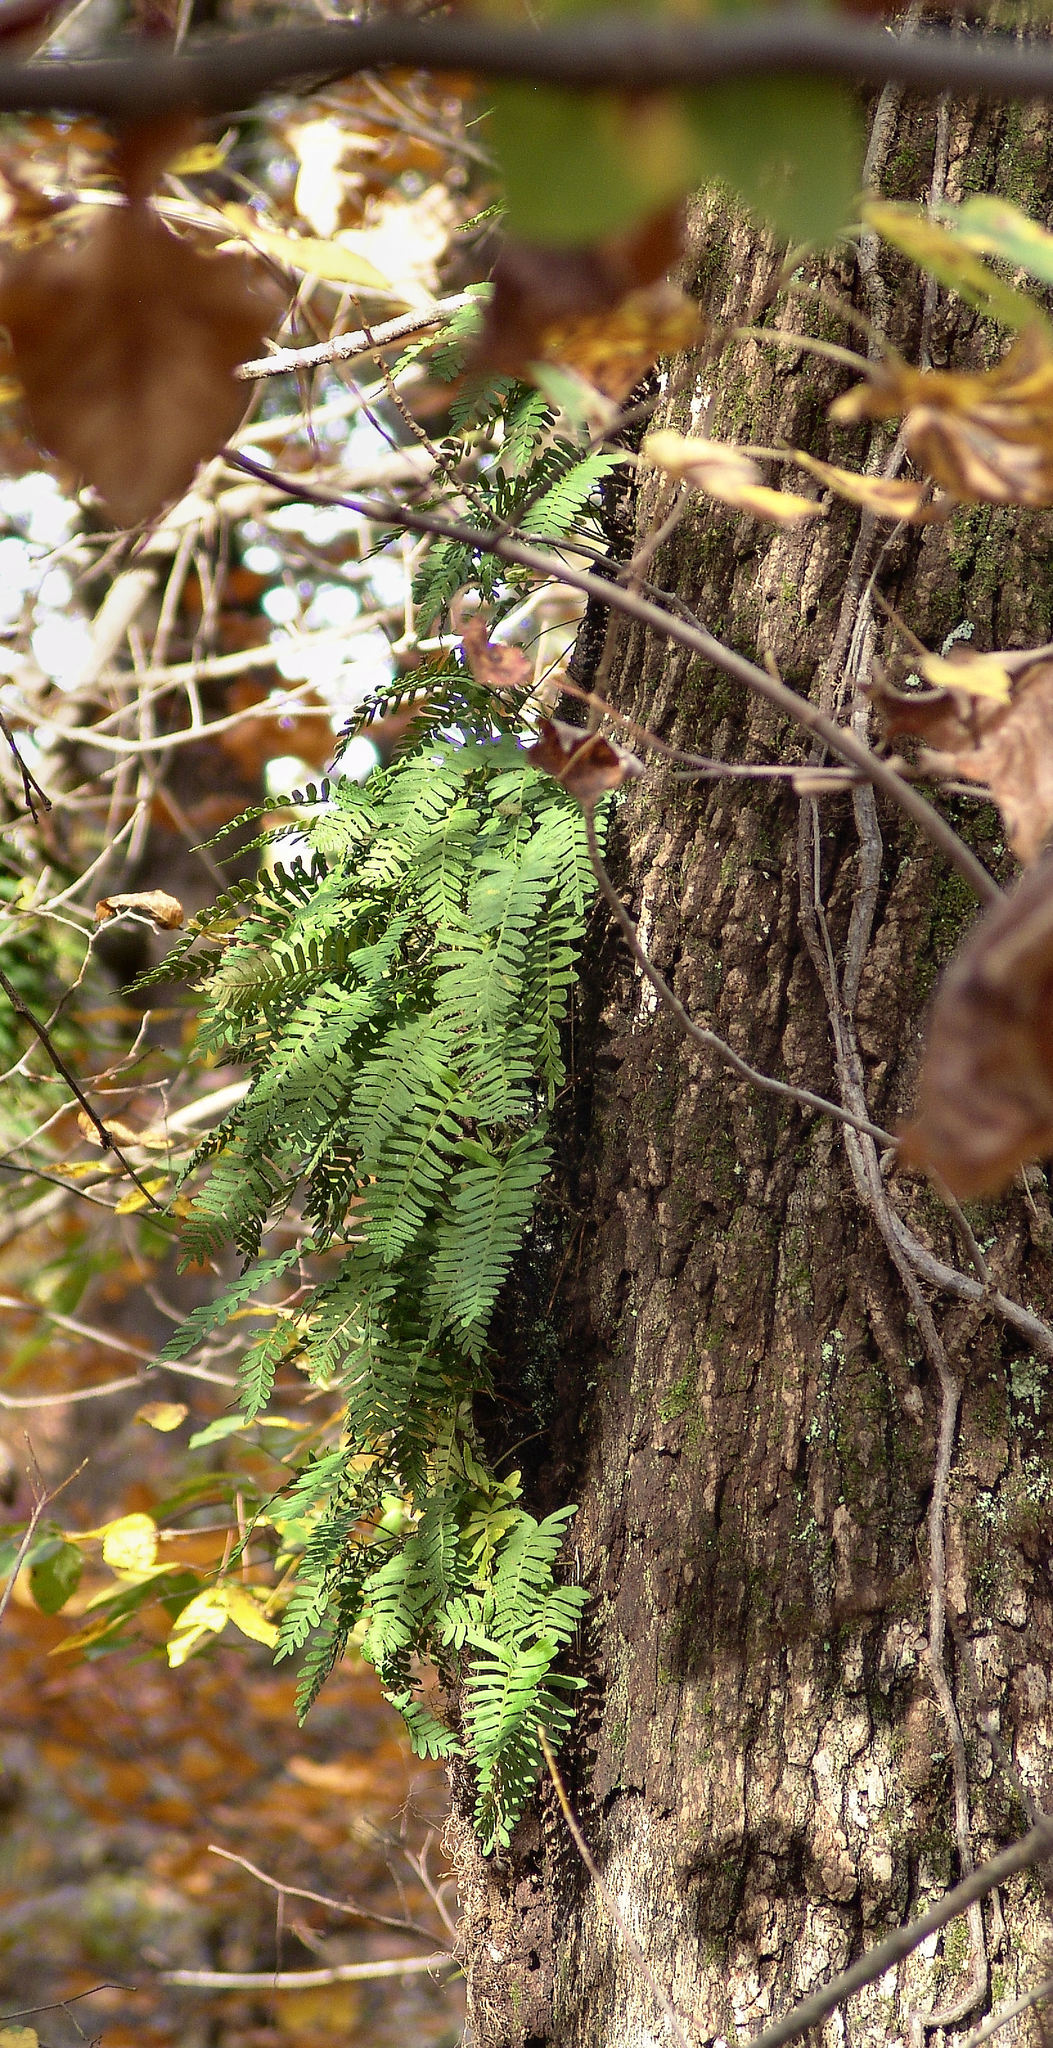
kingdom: Plantae
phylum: Tracheophyta
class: Polypodiopsida
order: Polypodiales
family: Polypodiaceae
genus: Pleopeltis
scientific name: Pleopeltis michauxiana
